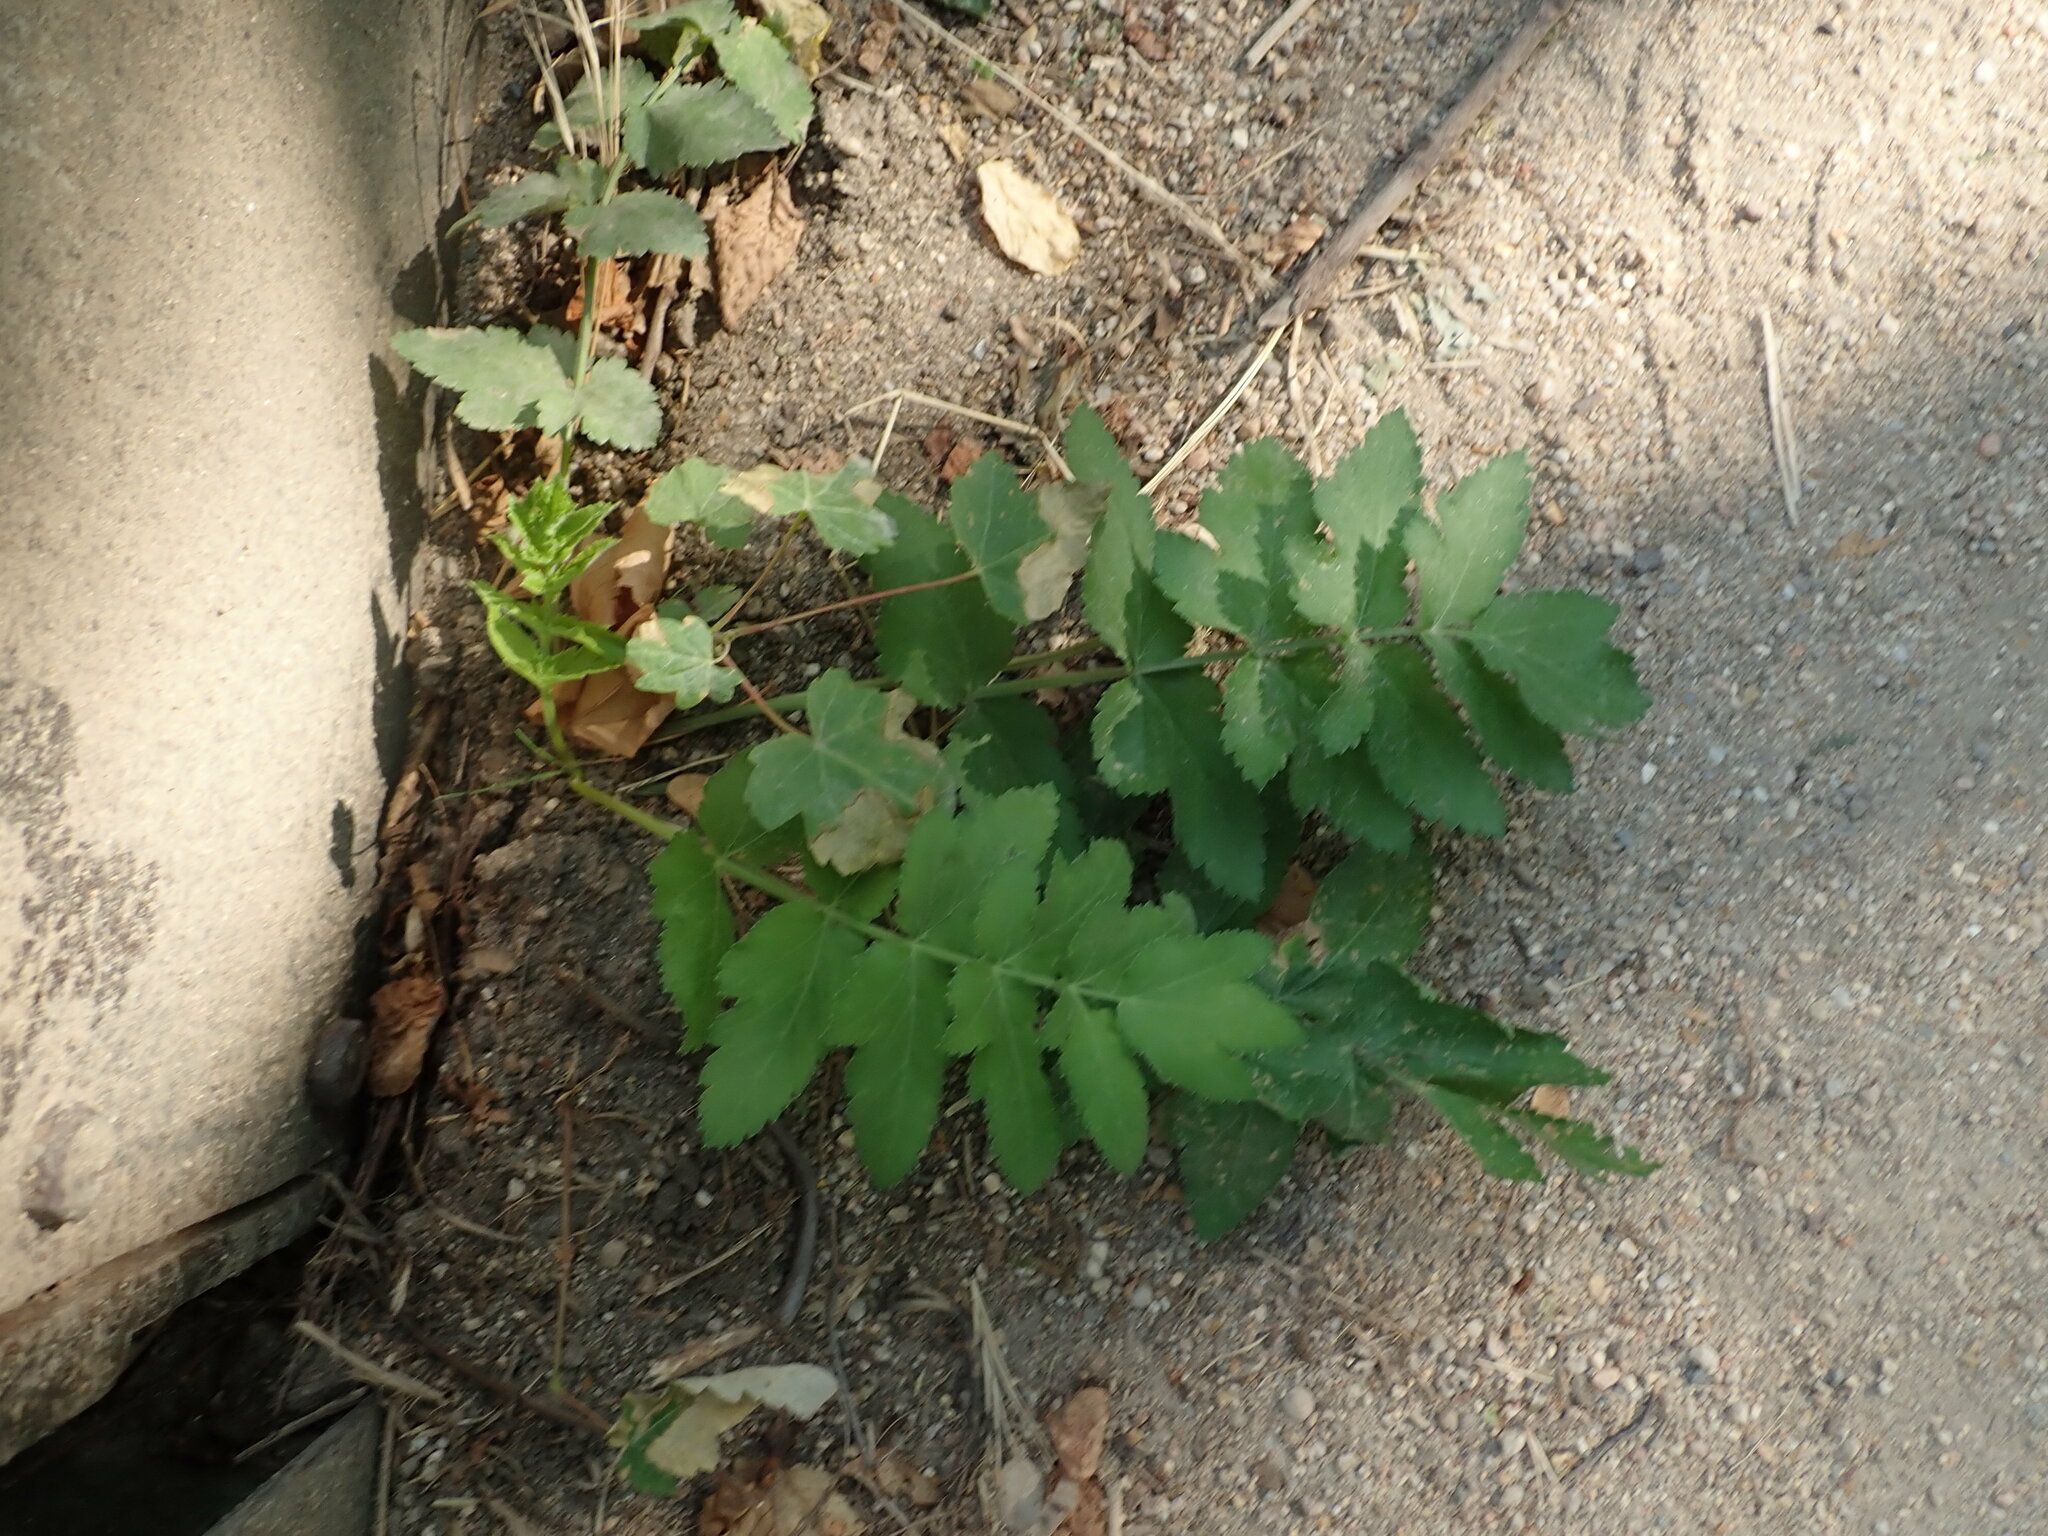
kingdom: Plantae
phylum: Tracheophyta
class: Magnoliopsida
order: Apiales
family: Apiaceae
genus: Pastinaca
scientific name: Pastinaca sativa
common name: Wild parsnip
